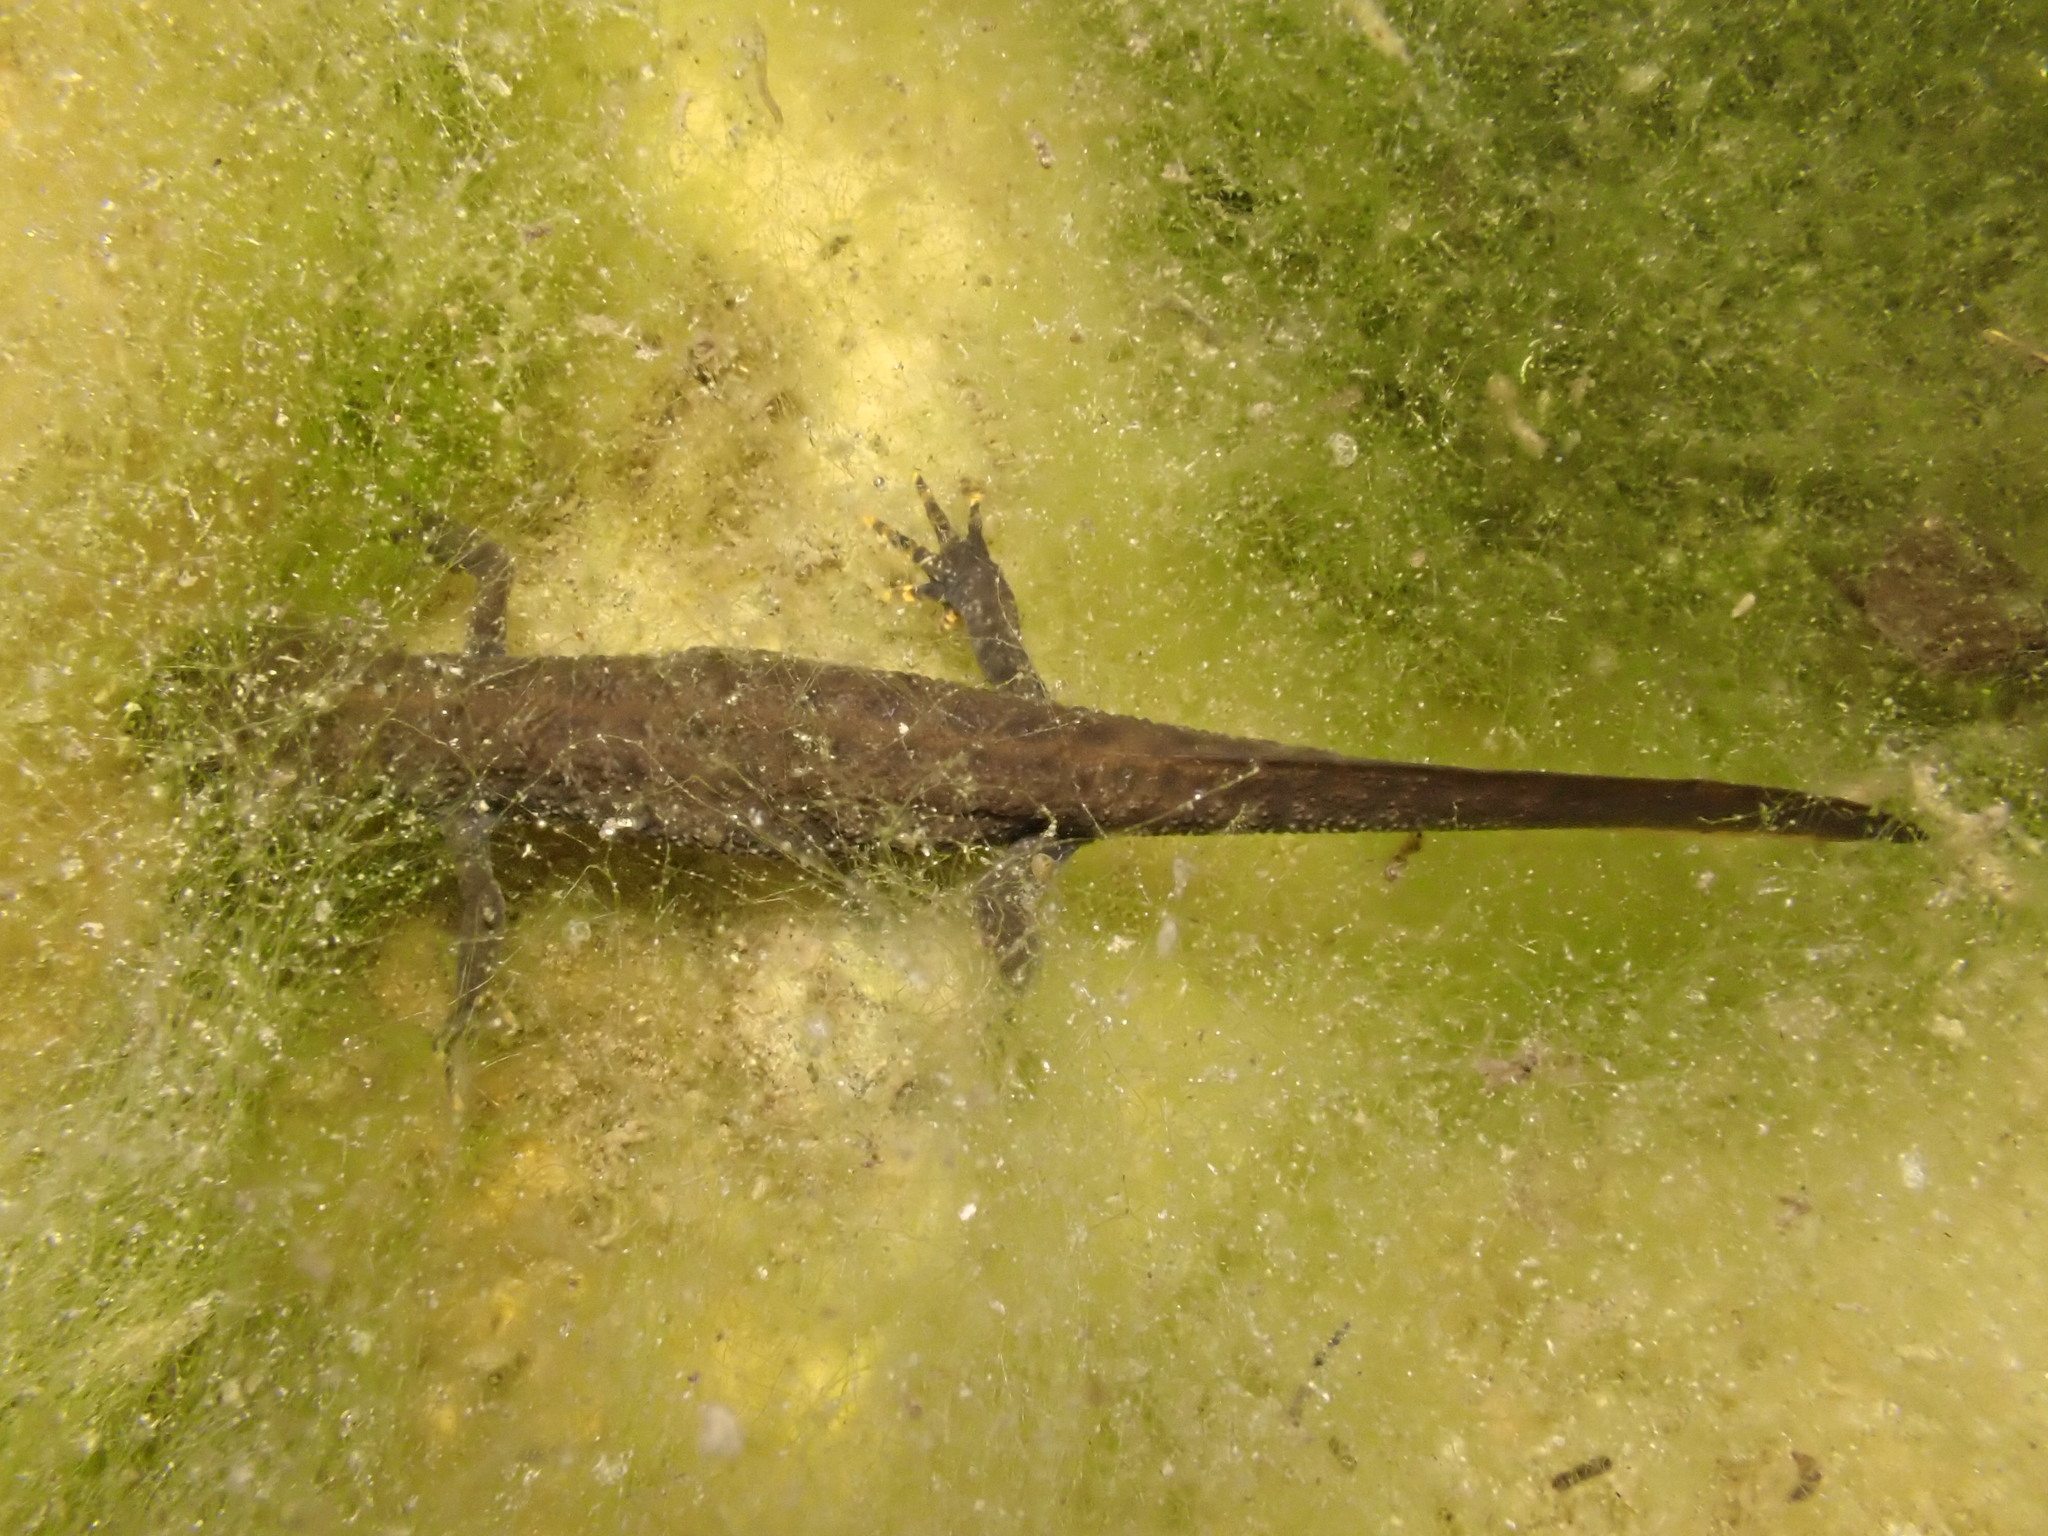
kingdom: Animalia
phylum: Chordata
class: Amphibia
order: Caudata
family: Salamandridae
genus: Triturus
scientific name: Triturus cristatus
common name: Crested newt
